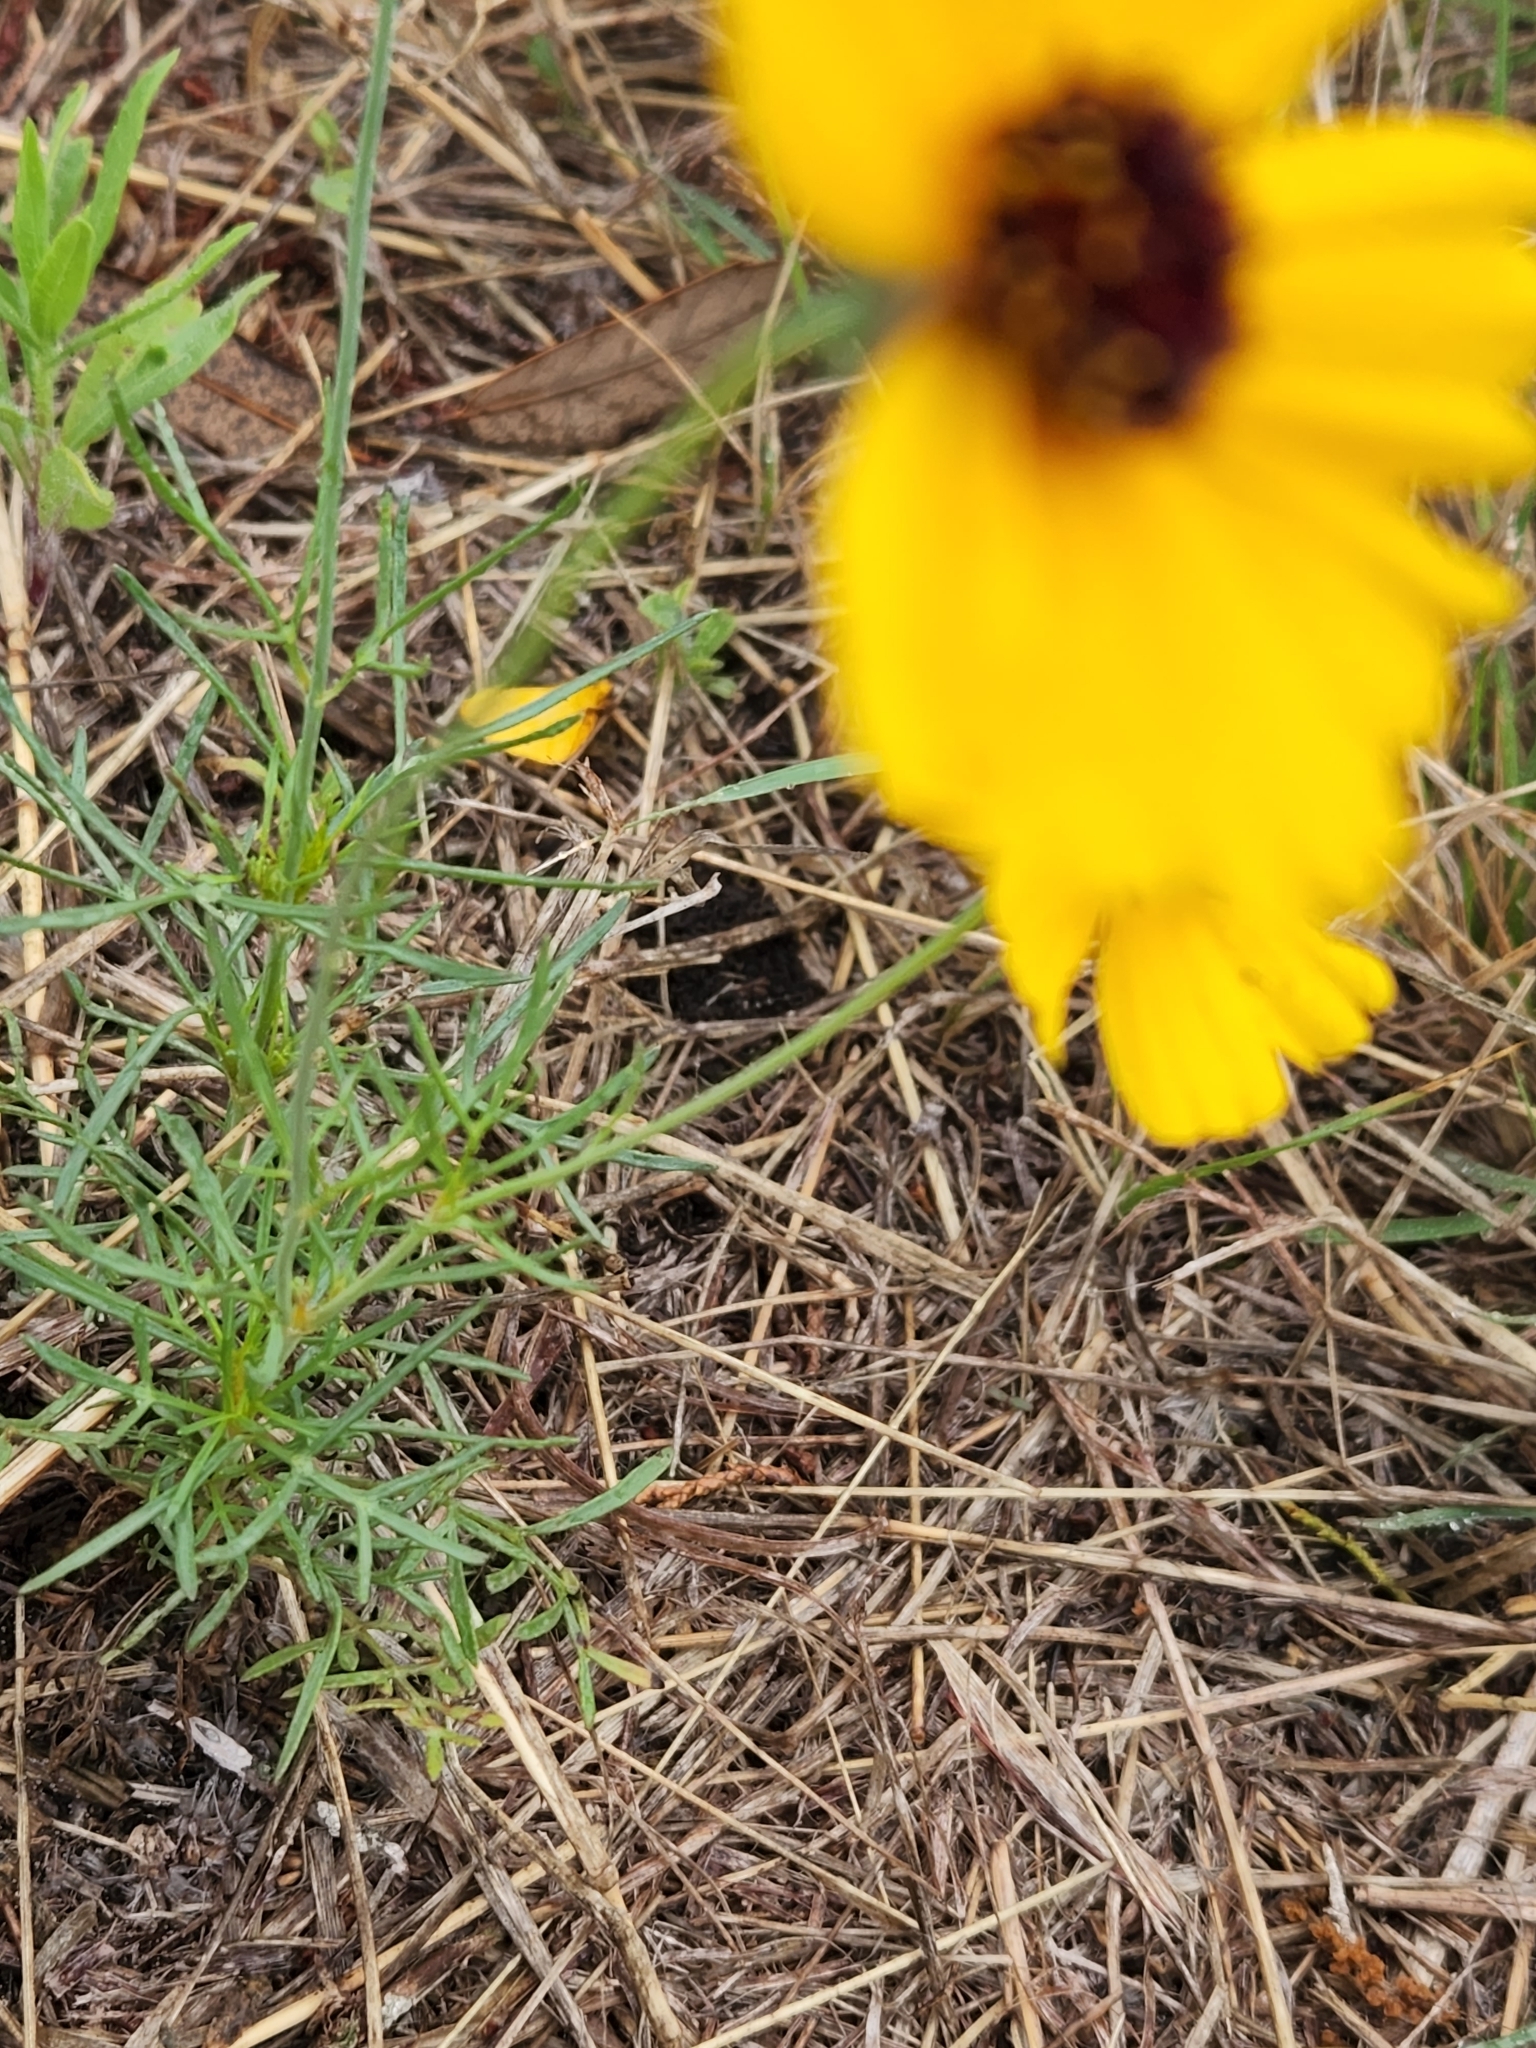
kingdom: Plantae
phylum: Tracheophyta
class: Magnoliopsida
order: Asterales
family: Asteraceae
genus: Thelesperma
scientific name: Thelesperma filifolium
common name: Stiff greenthread
